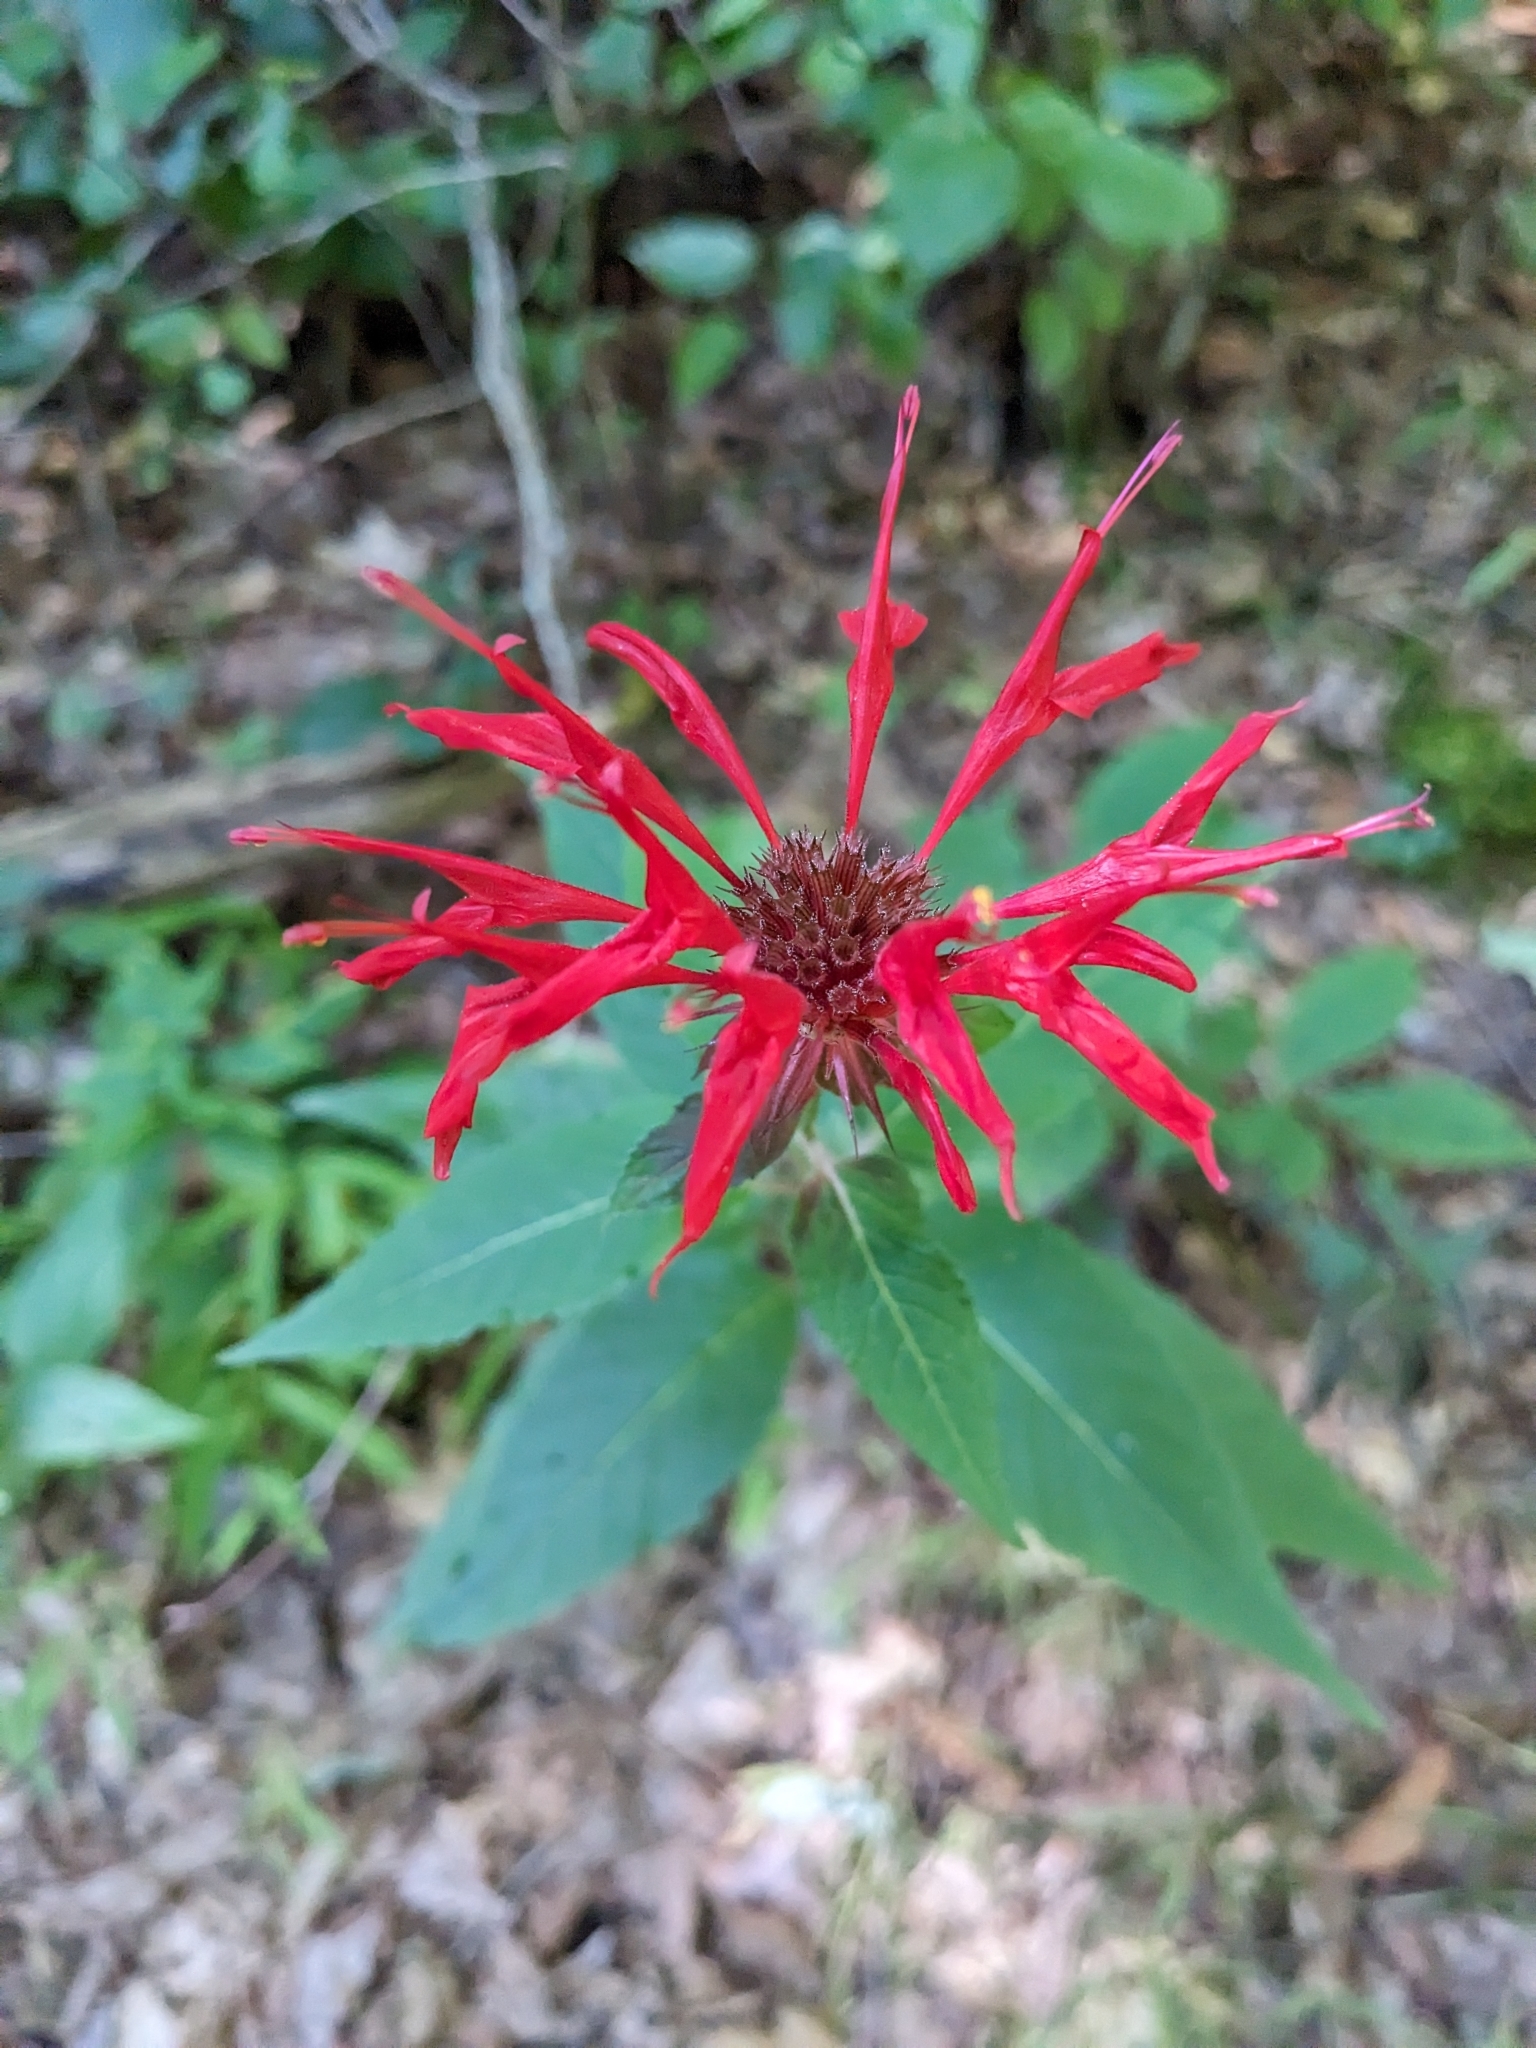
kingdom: Plantae
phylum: Tracheophyta
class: Magnoliopsida
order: Lamiales
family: Lamiaceae
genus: Monarda
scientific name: Monarda didyma
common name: Beebalm
